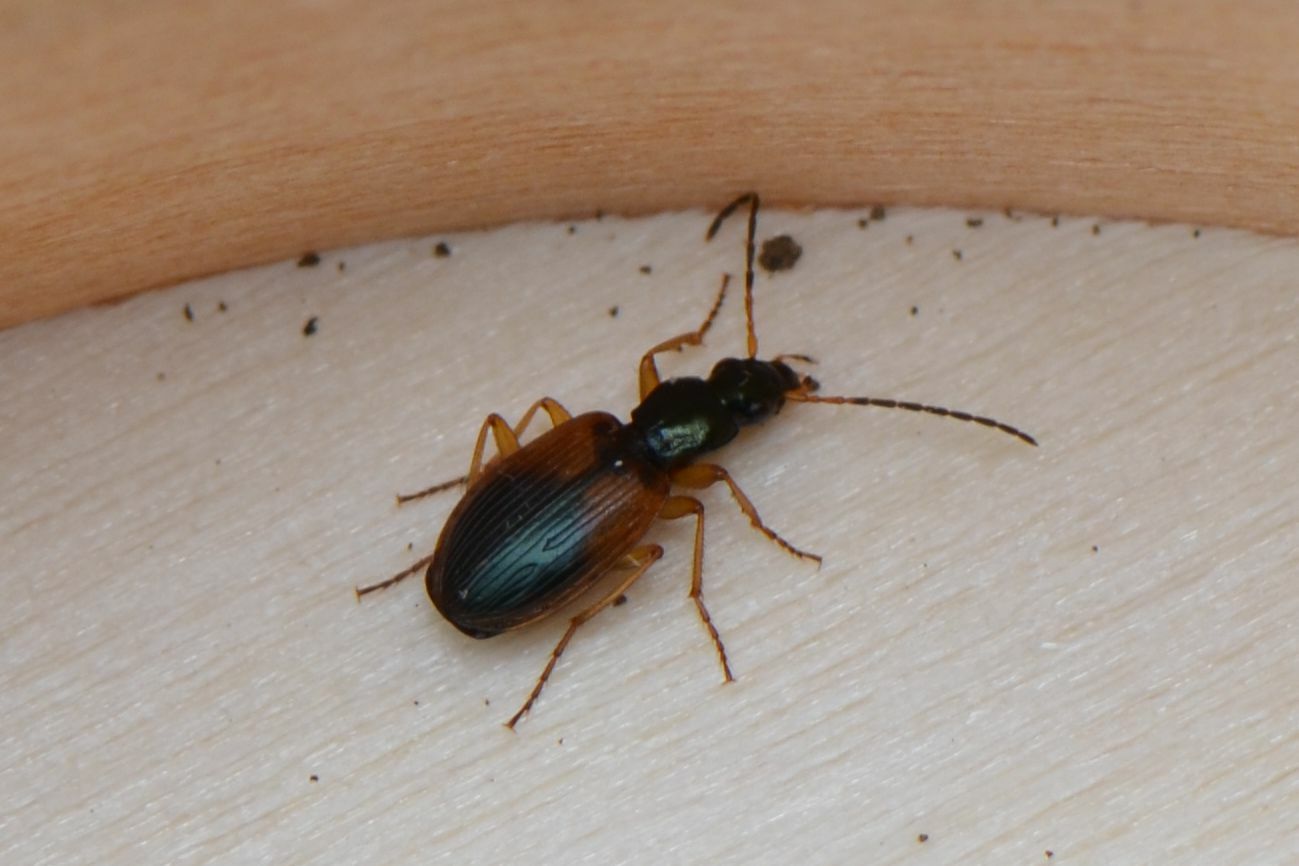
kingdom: Animalia
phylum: Arthropoda
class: Insecta
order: Coleoptera
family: Carabidae
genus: Anchomenus
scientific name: Anchomenus dorsalis
